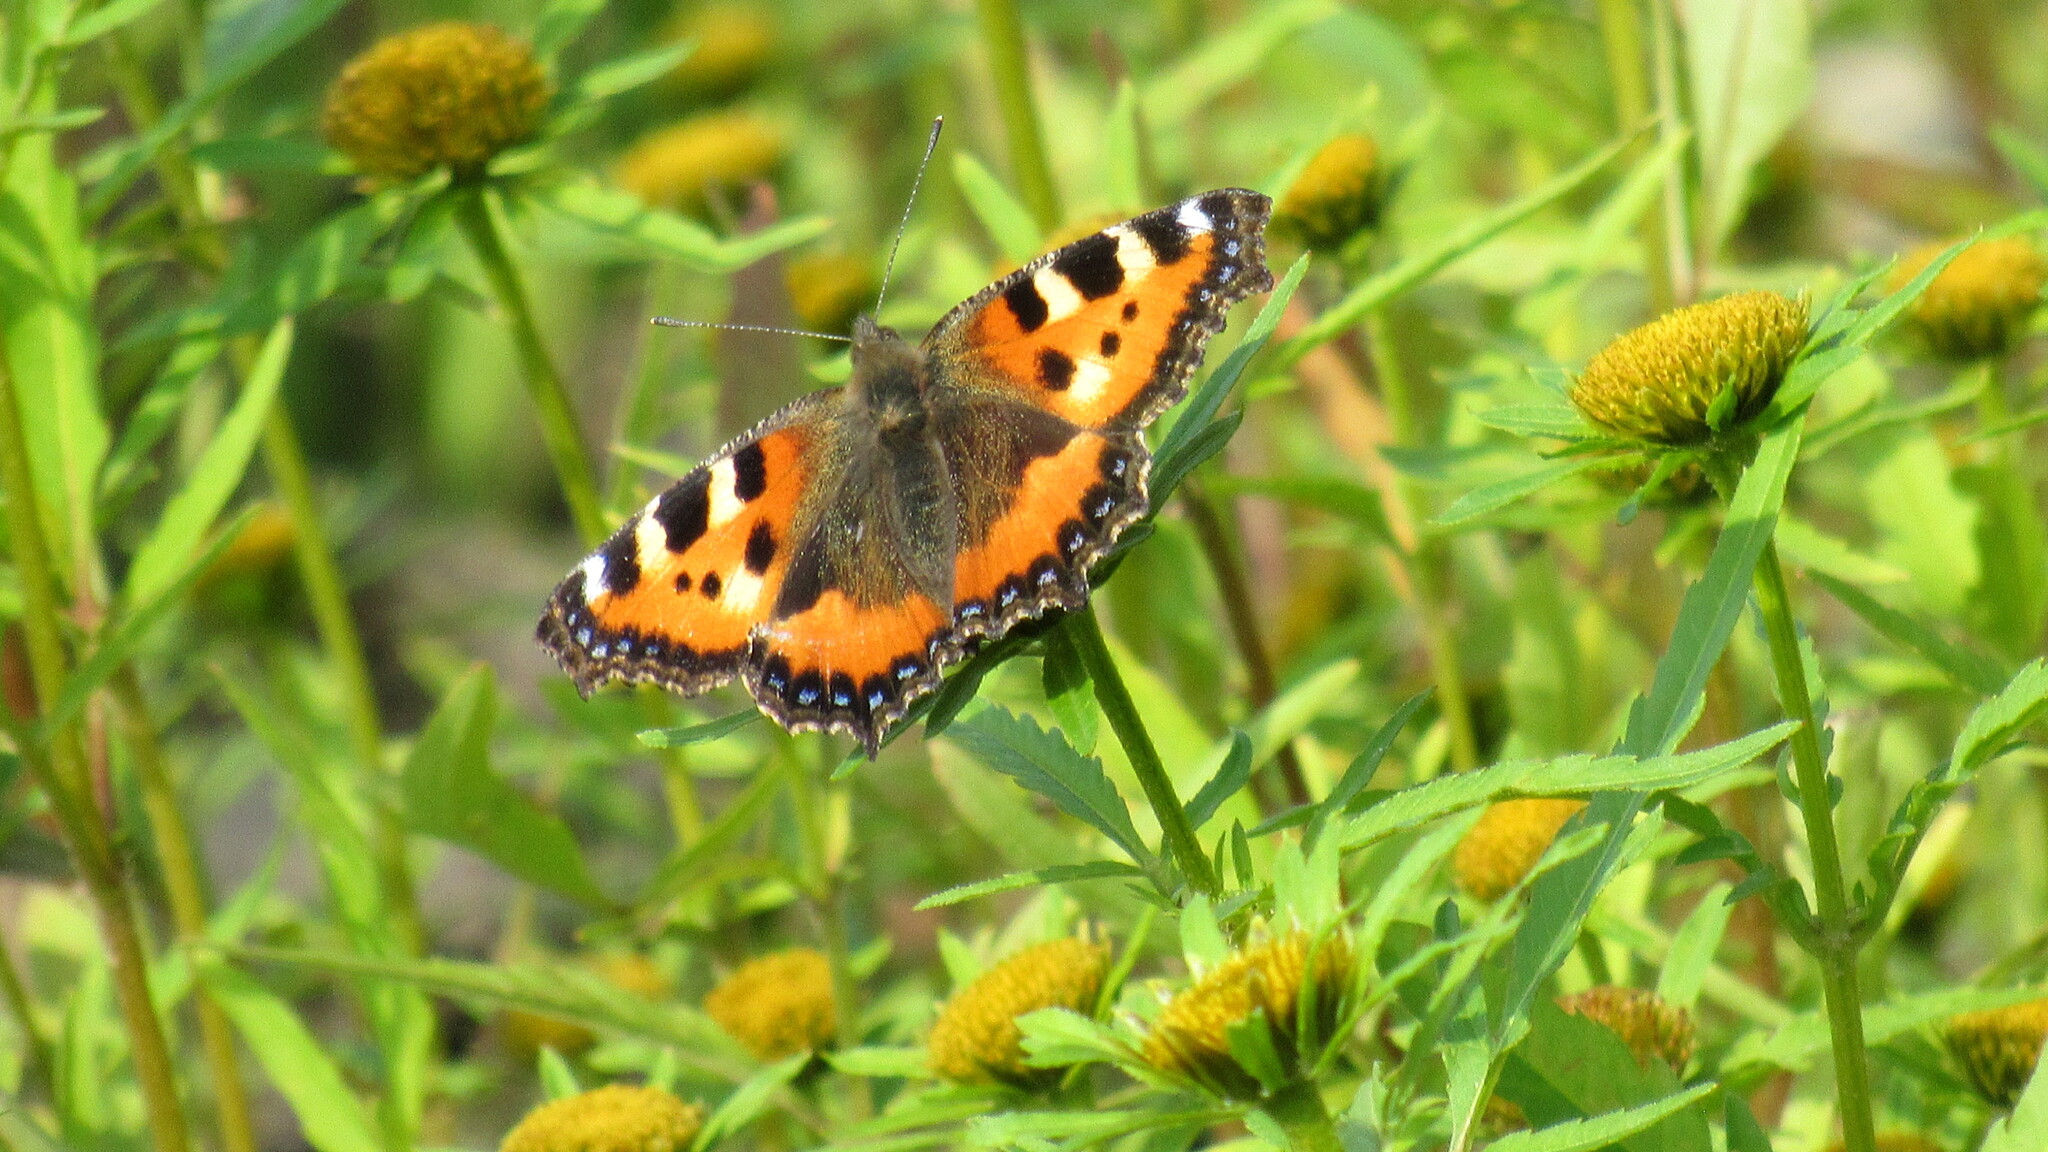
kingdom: Animalia
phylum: Arthropoda
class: Insecta
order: Lepidoptera
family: Nymphalidae
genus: Aglais
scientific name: Aglais urticae
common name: Small tortoiseshell
